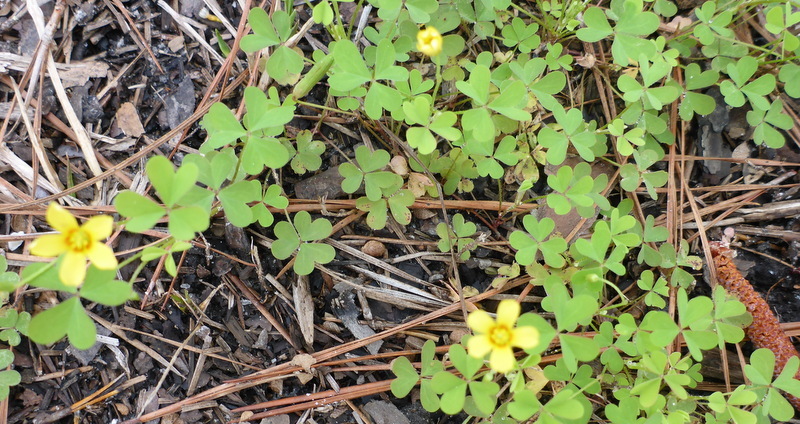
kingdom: Plantae
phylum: Tracheophyta
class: Magnoliopsida
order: Oxalidales
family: Oxalidaceae
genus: Oxalis
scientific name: Oxalis corniculata
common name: Procumbent yellow-sorrel
